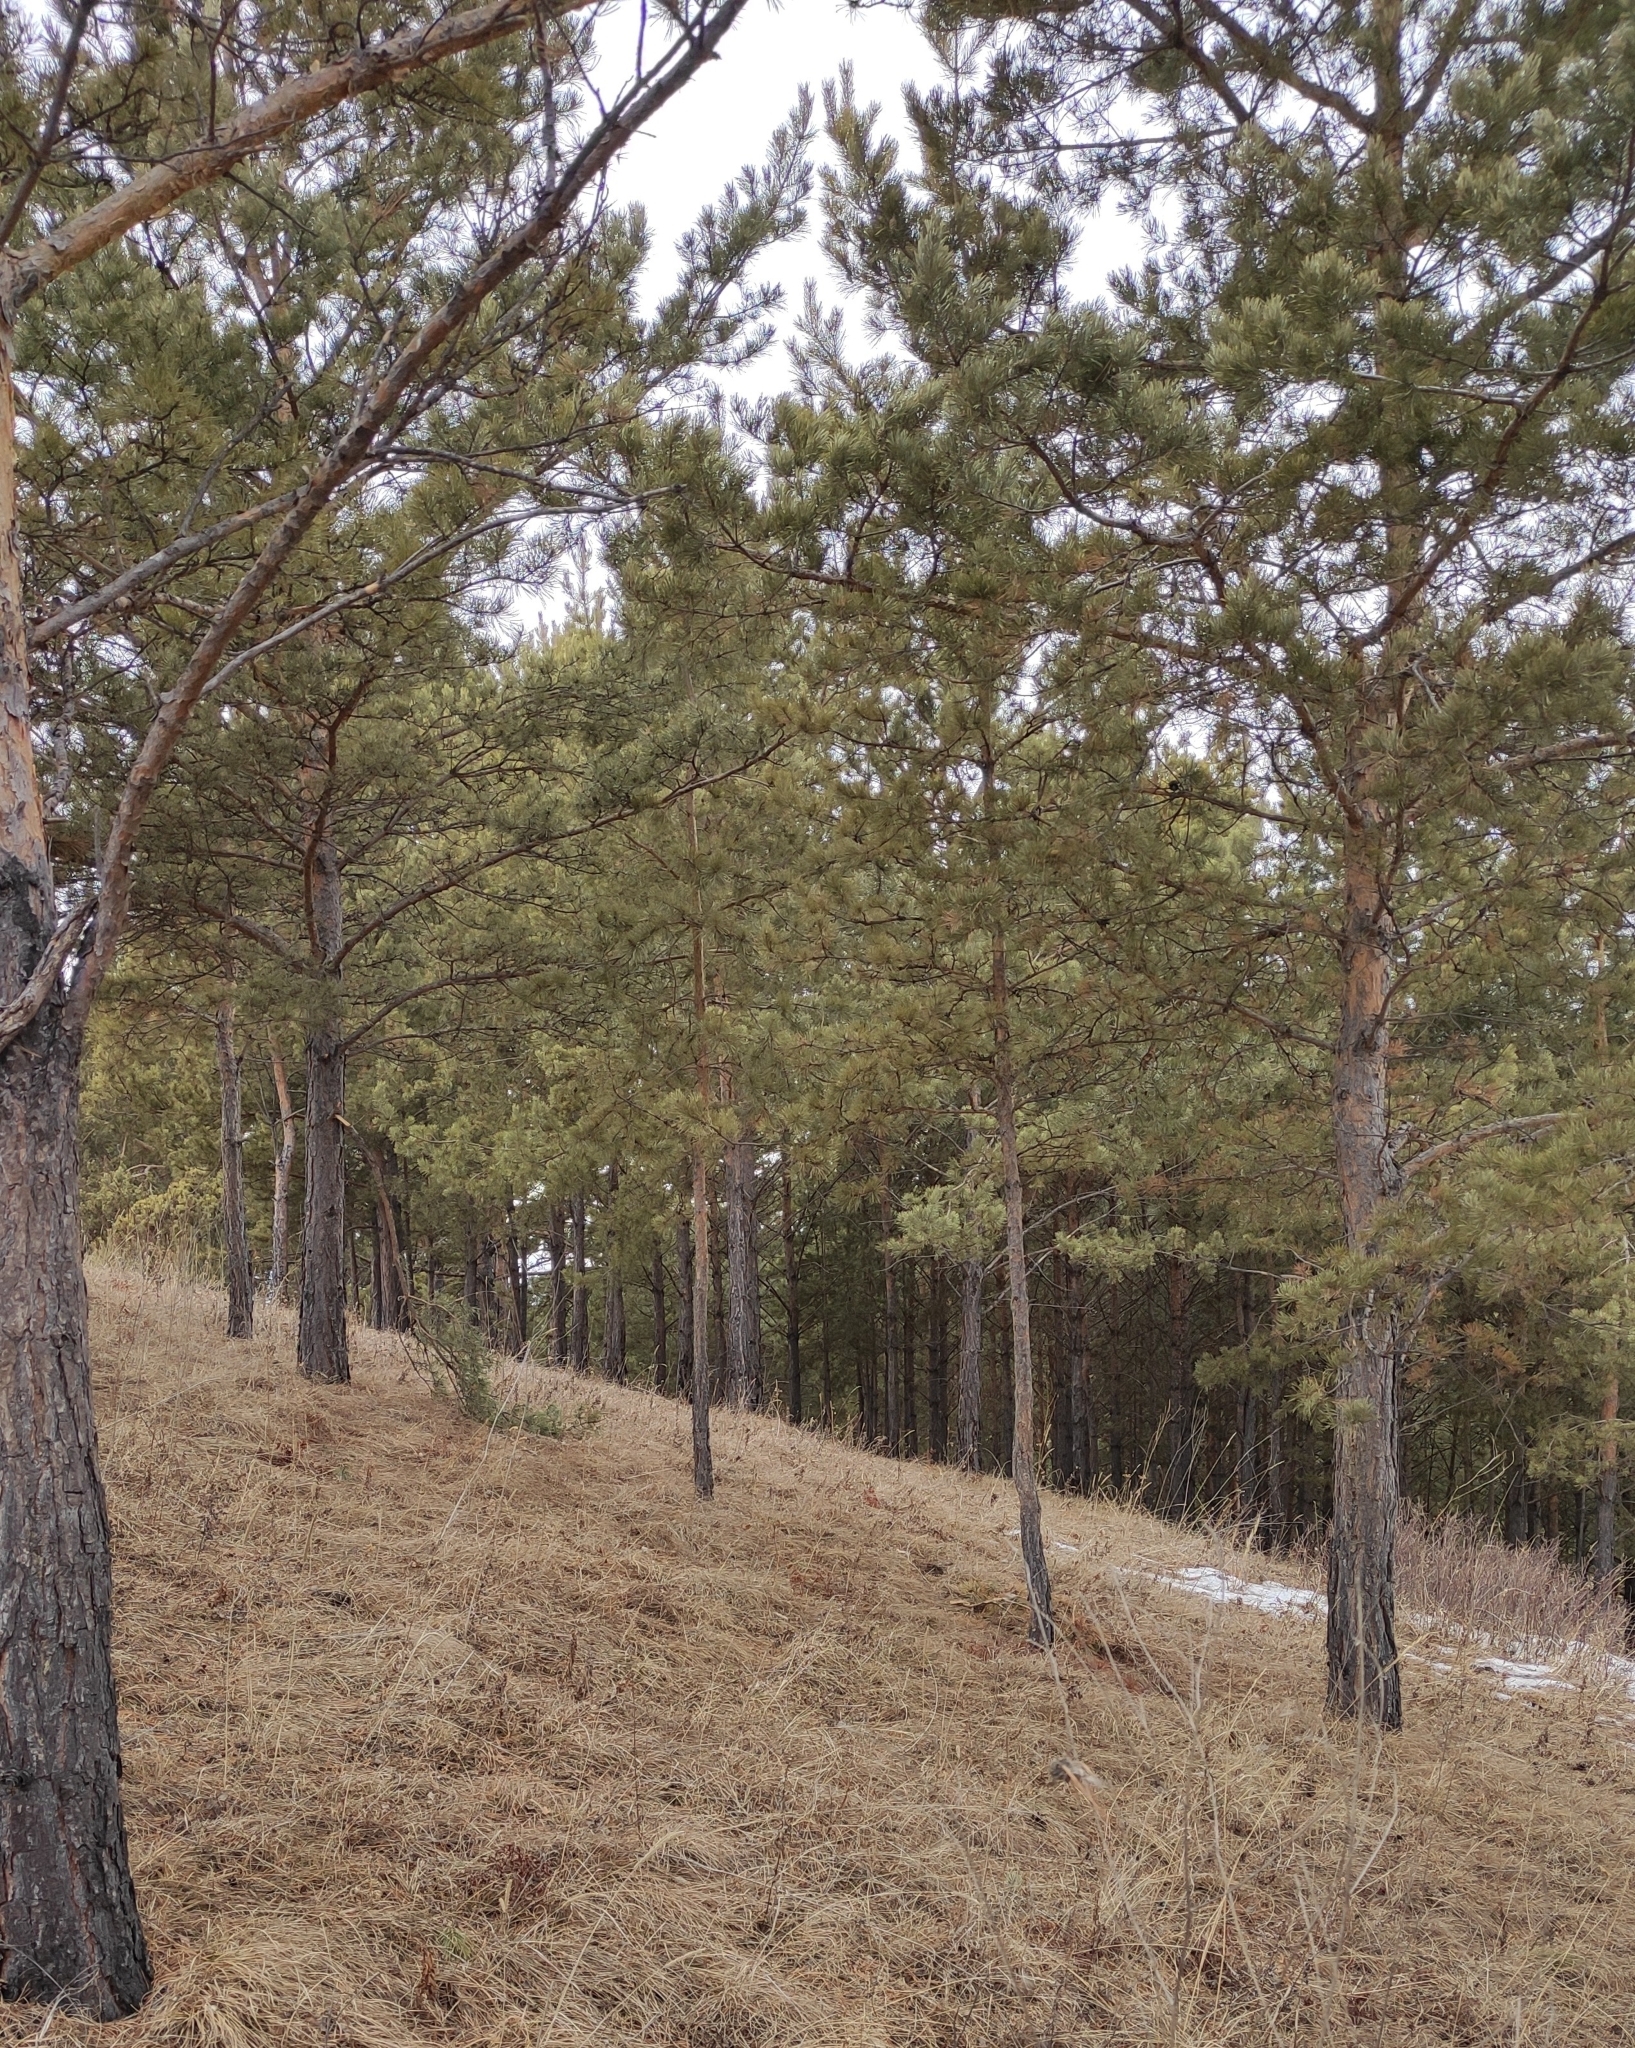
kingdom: Plantae
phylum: Tracheophyta
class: Pinopsida
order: Pinales
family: Pinaceae
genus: Pinus
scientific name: Pinus sylvestris
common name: Scots pine
